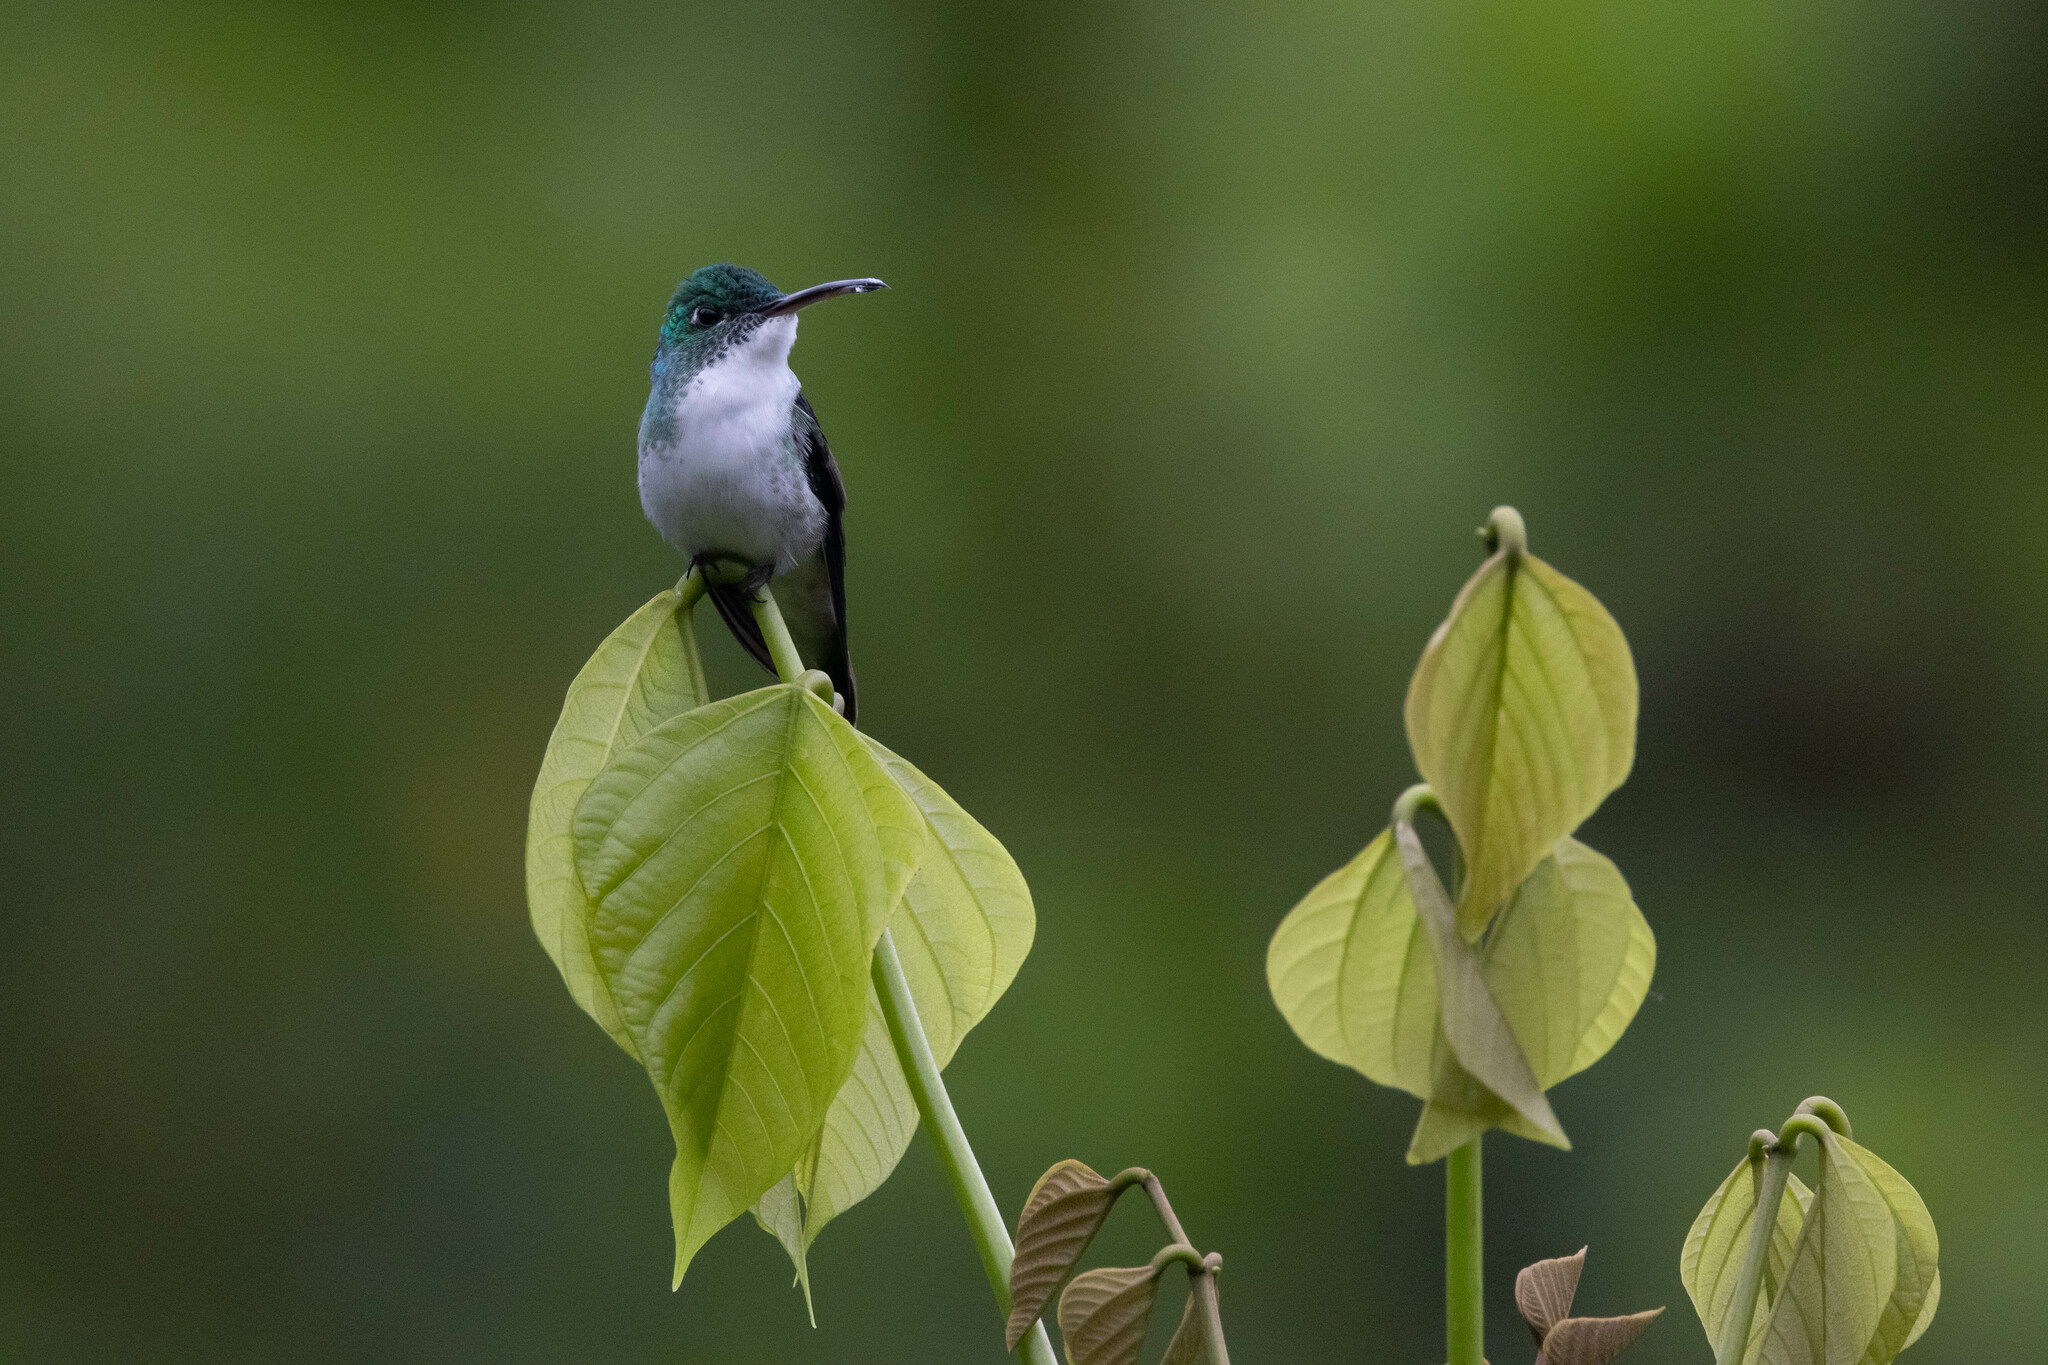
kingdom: Animalia
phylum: Chordata
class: Aves
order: Apodiformes
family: Trochilidae
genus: Uranomitra
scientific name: Uranomitra franciae
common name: Andean emerald
